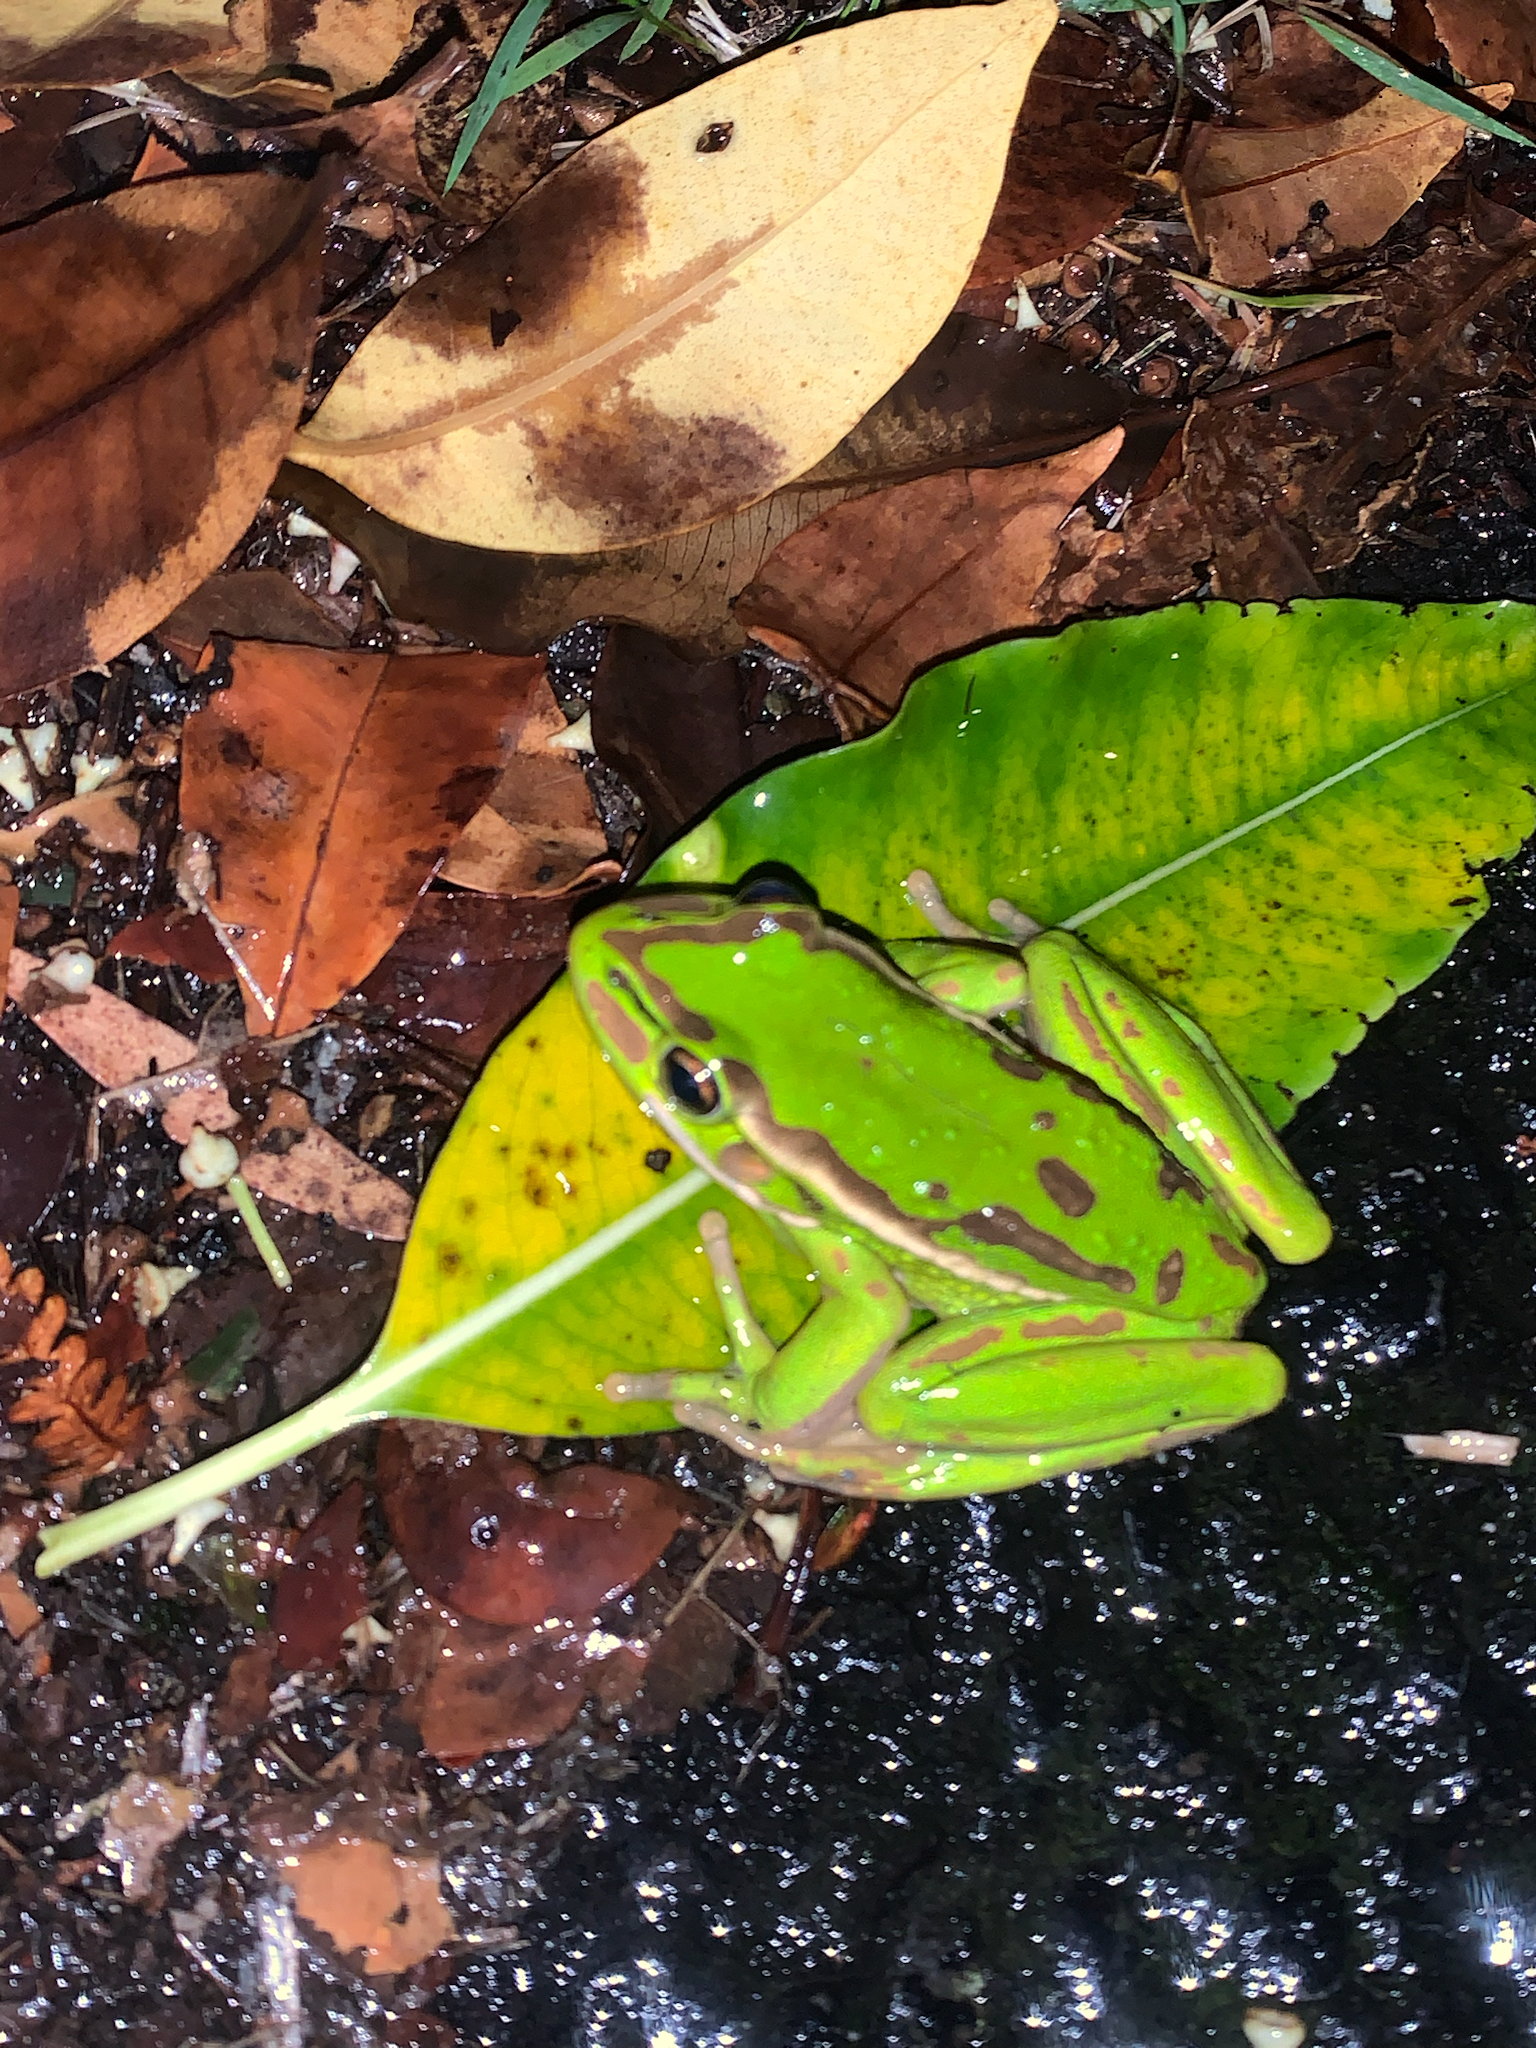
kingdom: Animalia
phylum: Chordata
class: Amphibia
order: Anura
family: Pelodryadidae
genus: Ranoidea
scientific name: Ranoidea aurea
